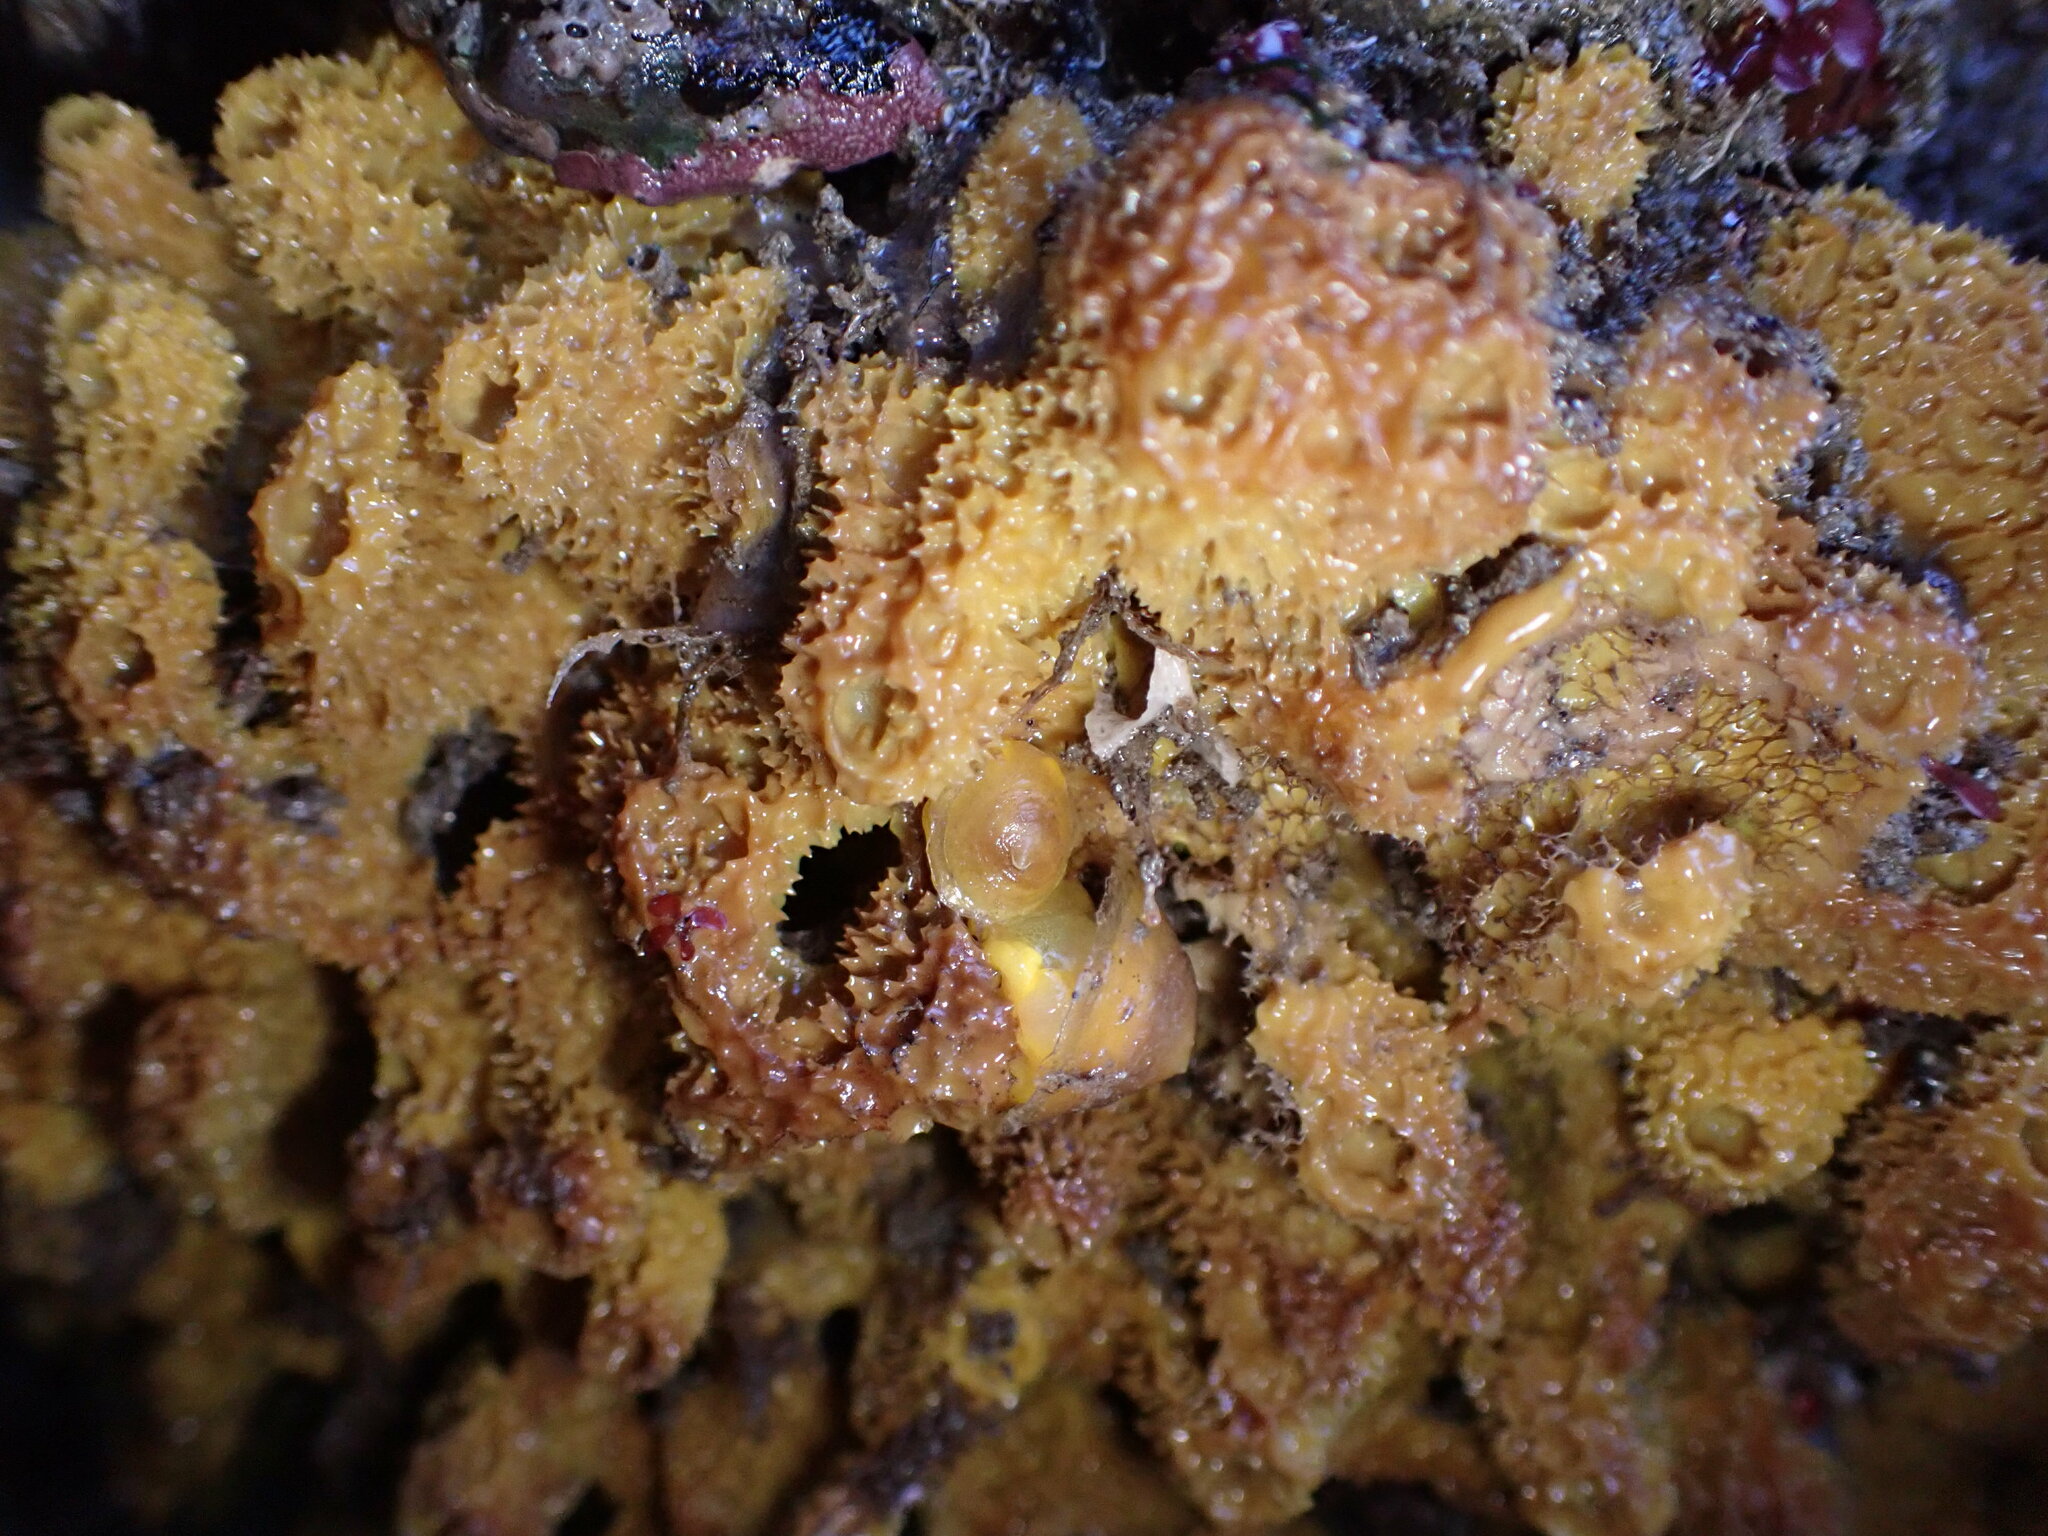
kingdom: Animalia
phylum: Mollusca
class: Gastropoda
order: Umbraculida
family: Tylodinidae
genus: Tylodina
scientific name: Tylodina fungina
